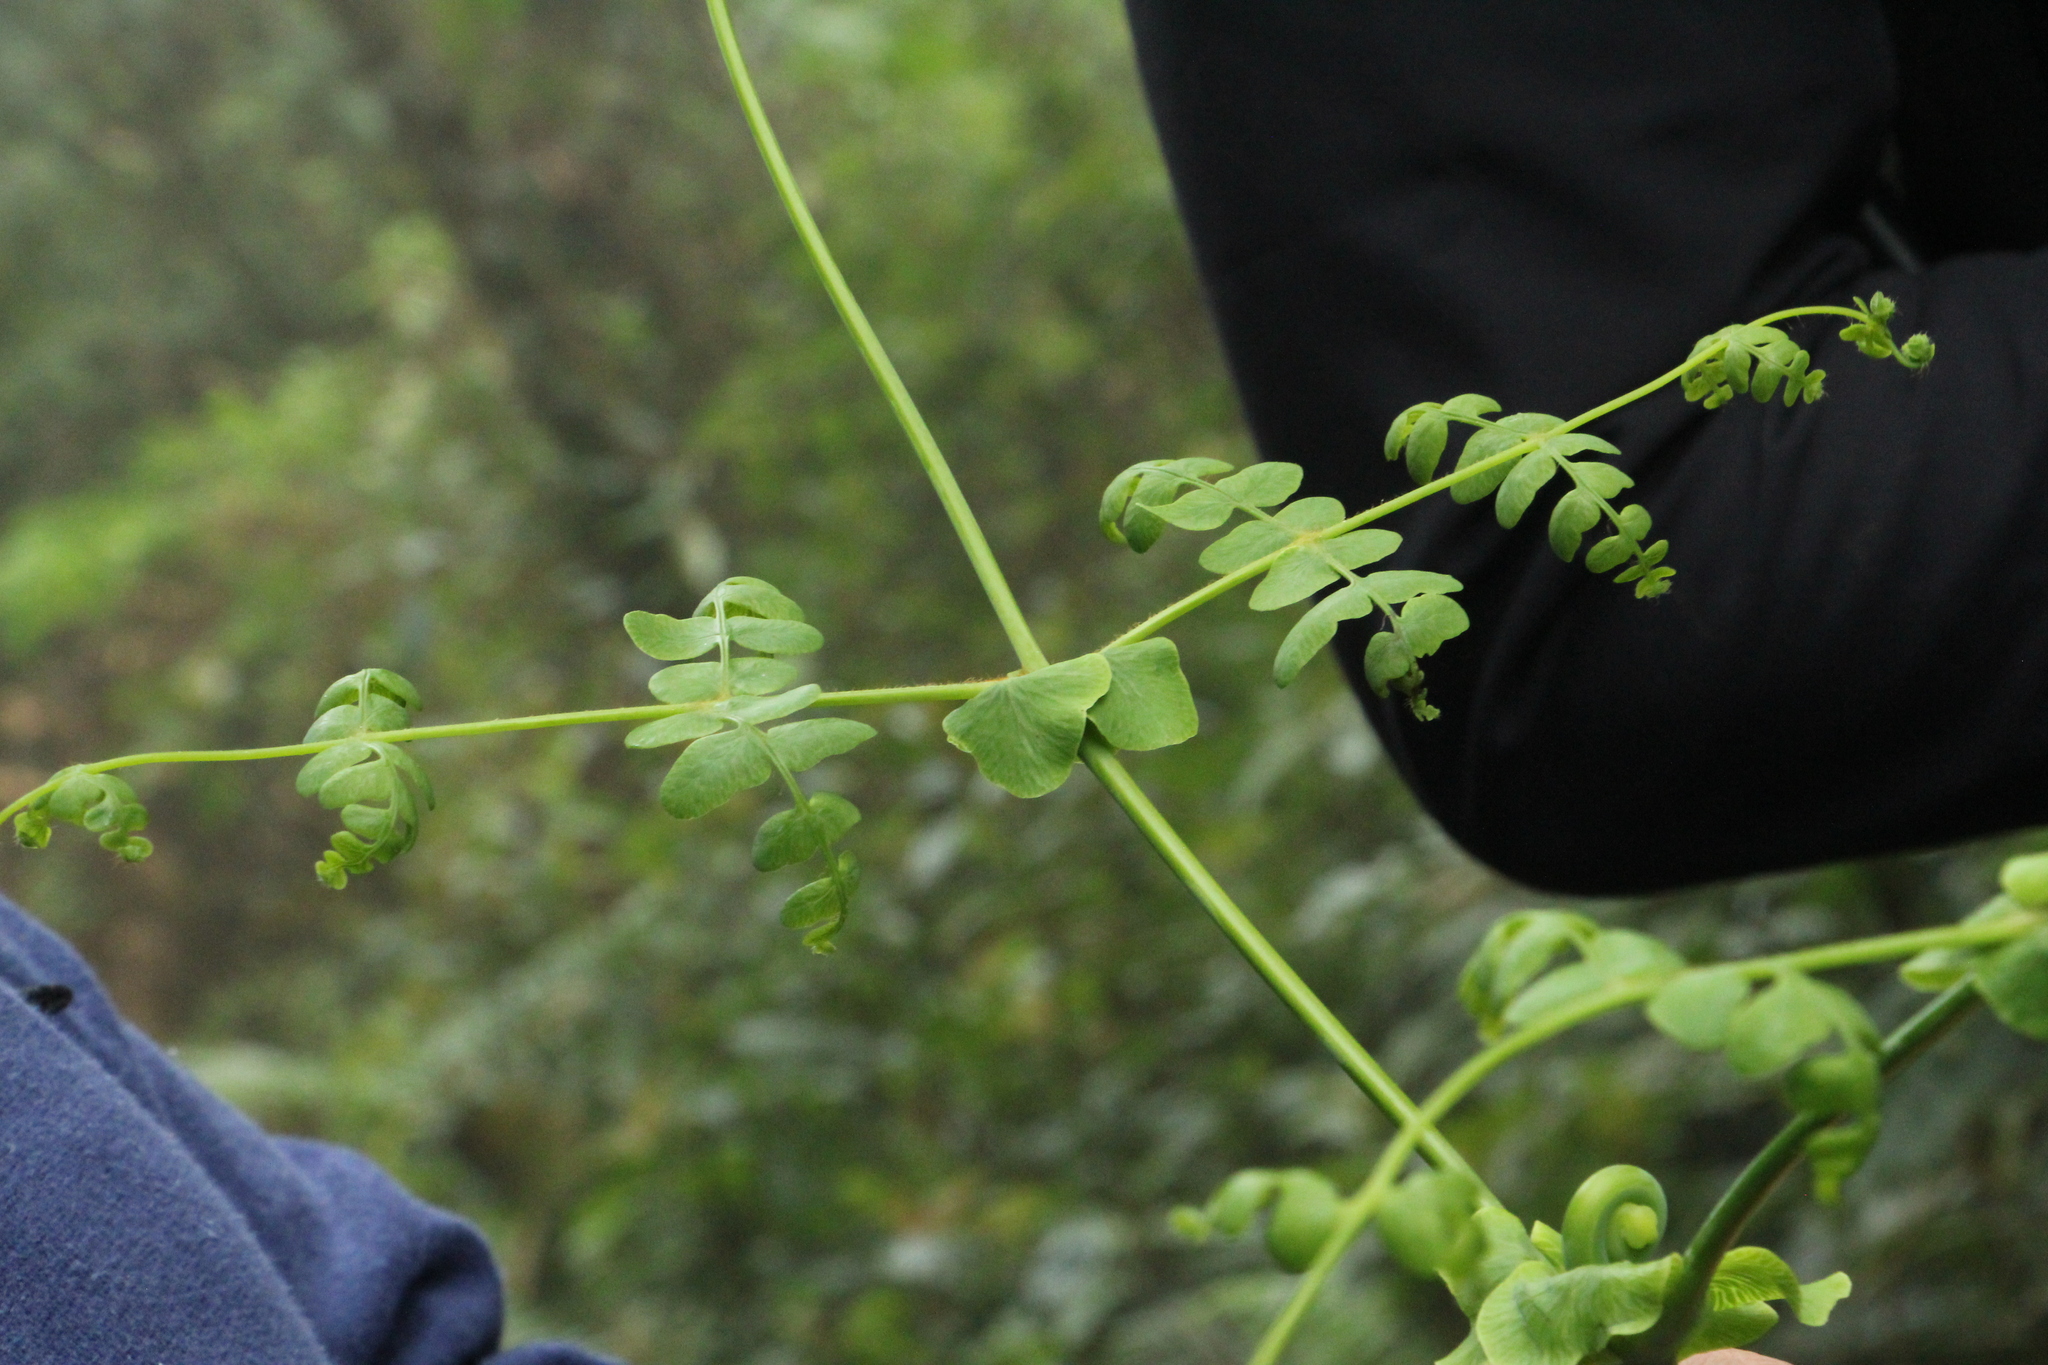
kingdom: Plantae
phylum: Tracheophyta
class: Polypodiopsida
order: Polypodiales
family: Dennstaedtiaceae
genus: Histiopteris
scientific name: Histiopteris incisa
